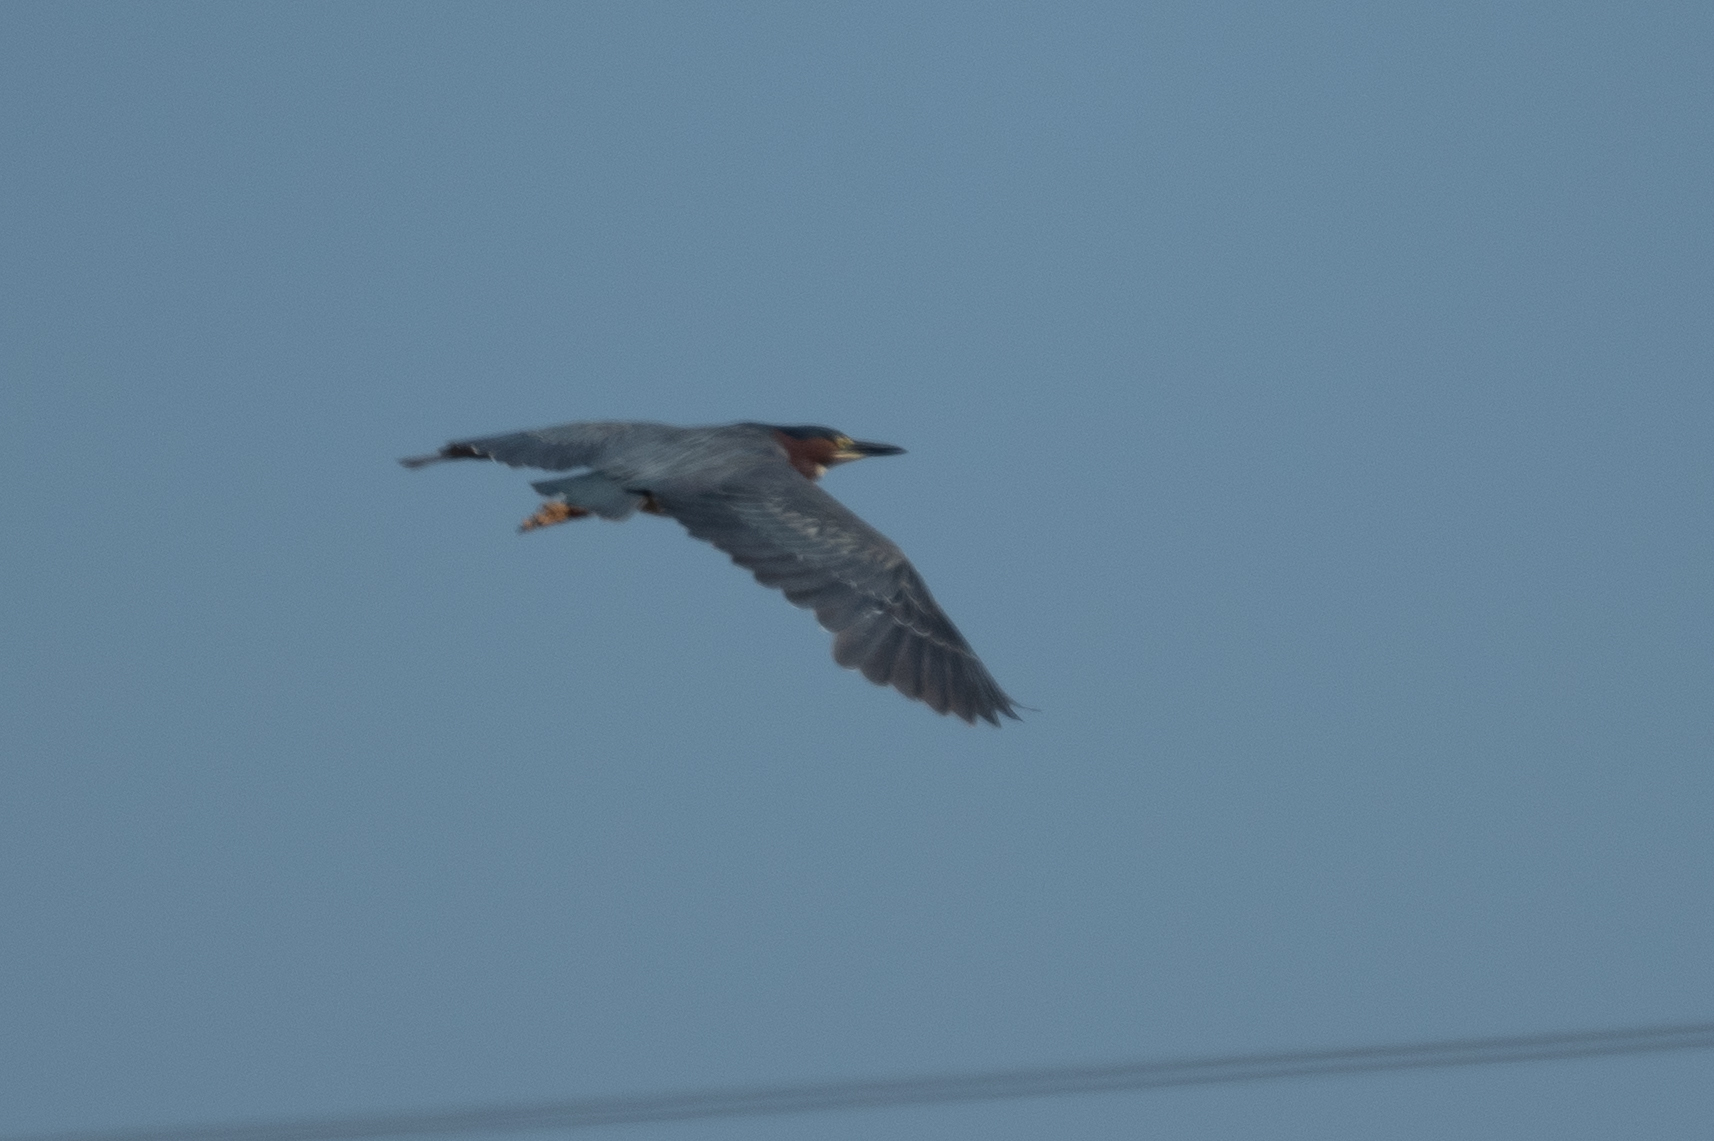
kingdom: Animalia
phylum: Chordata
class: Aves
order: Pelecaniformes
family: Ardeidae
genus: Butorides
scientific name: Butorides virescens
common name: Green heron
